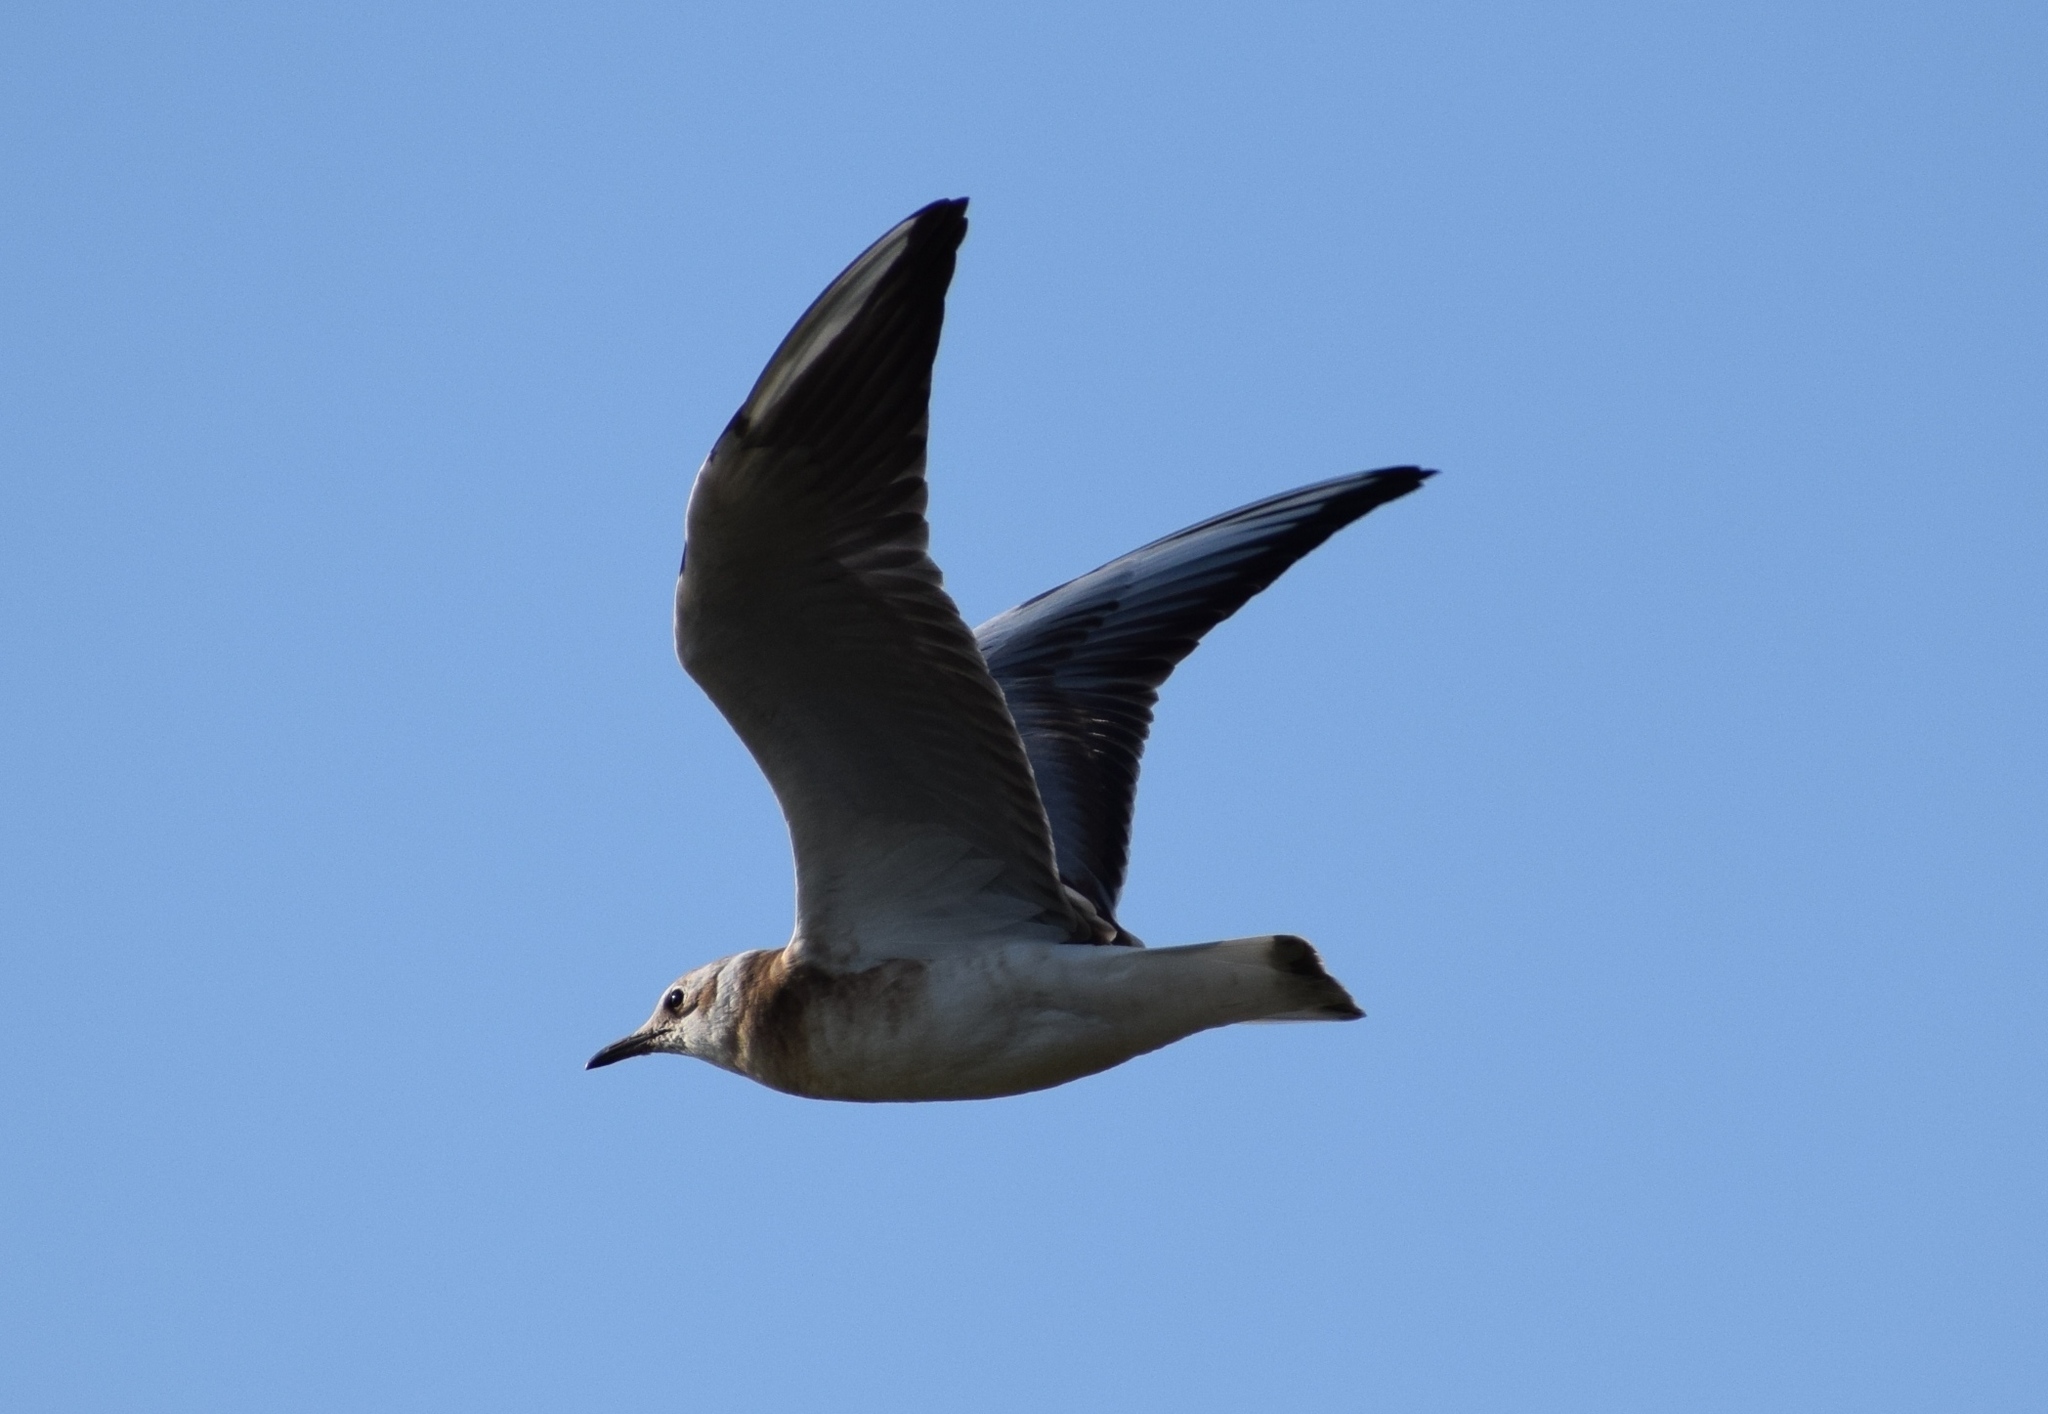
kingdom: Animalia
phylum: Chordata
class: Aves
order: Charadriiformes
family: Laridae
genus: Chroicocephalus
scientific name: Chroicocephalus ridibundus
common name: Black-headed gull
